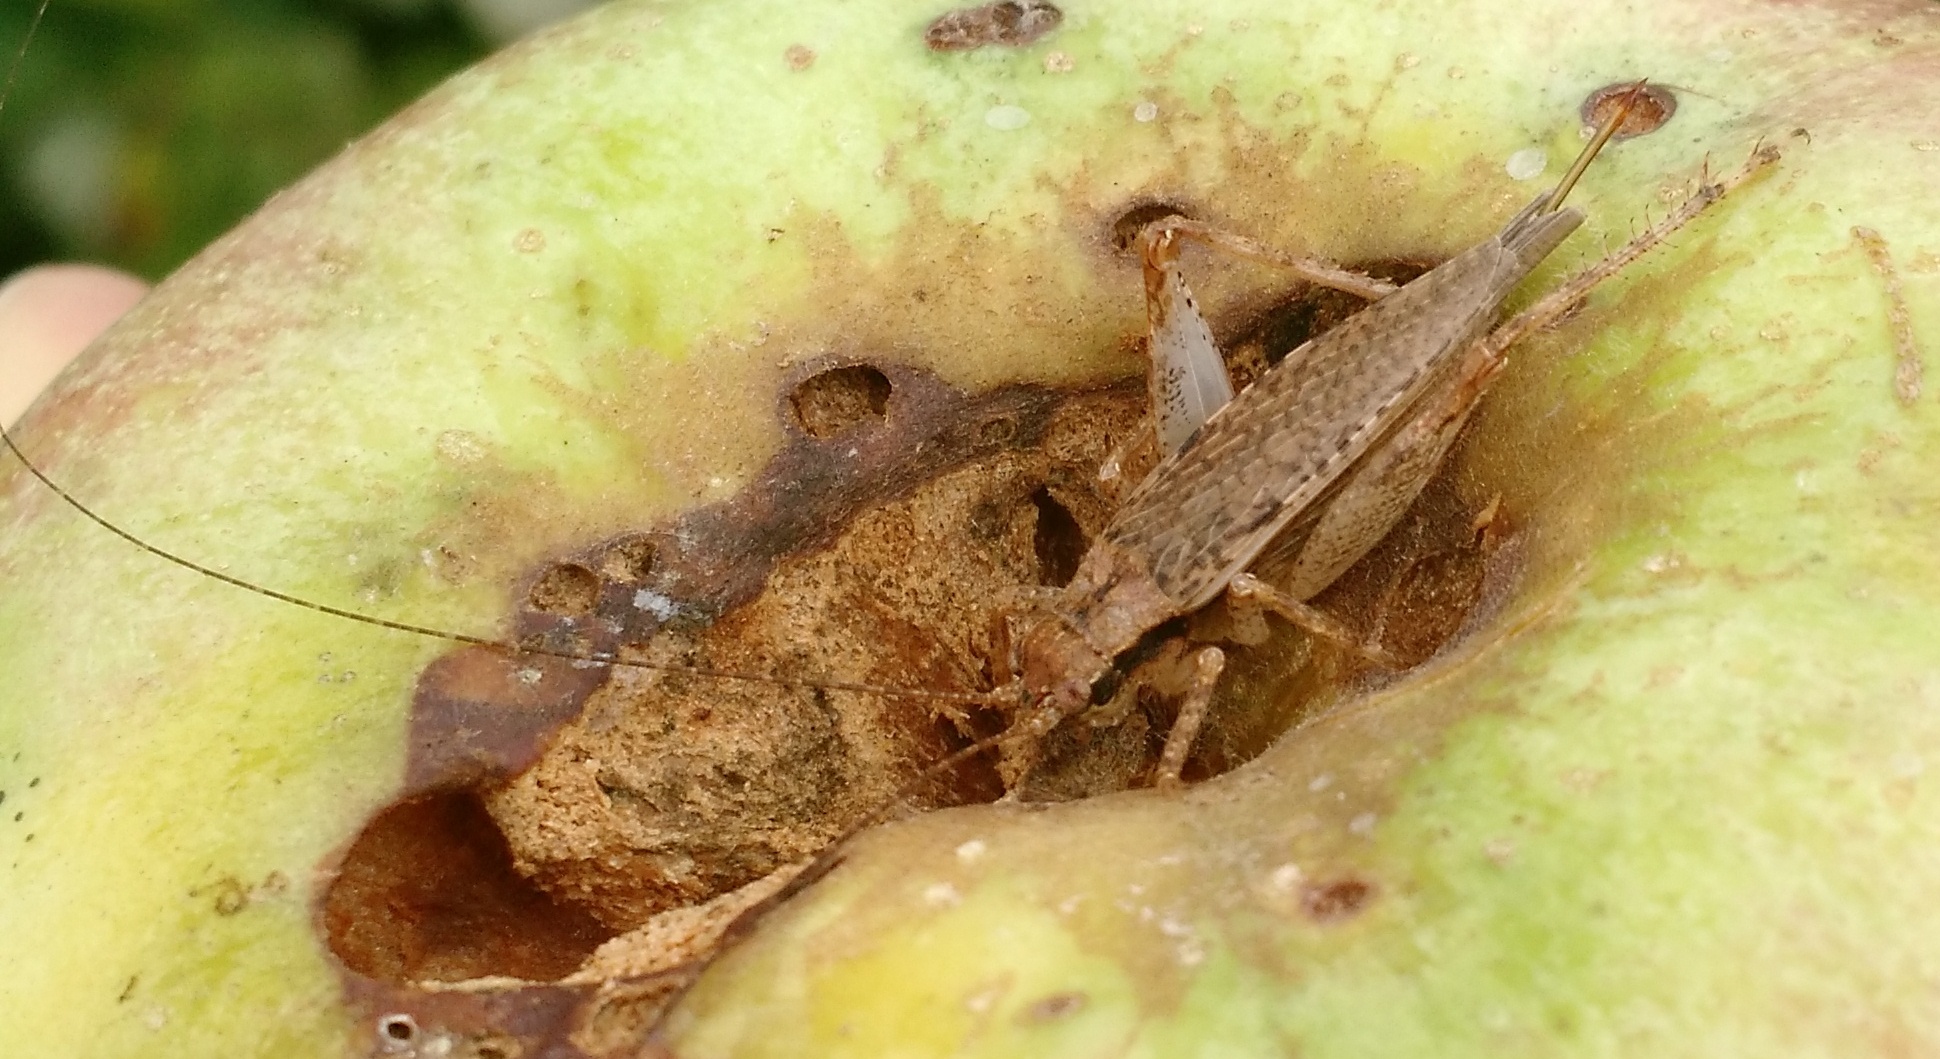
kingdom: Animalia
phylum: Arthropoda
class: Insecta
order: Orthoptera
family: Gryllidae
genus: Hapithus
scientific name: Hapithus saltator
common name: Jumping bush cricket
